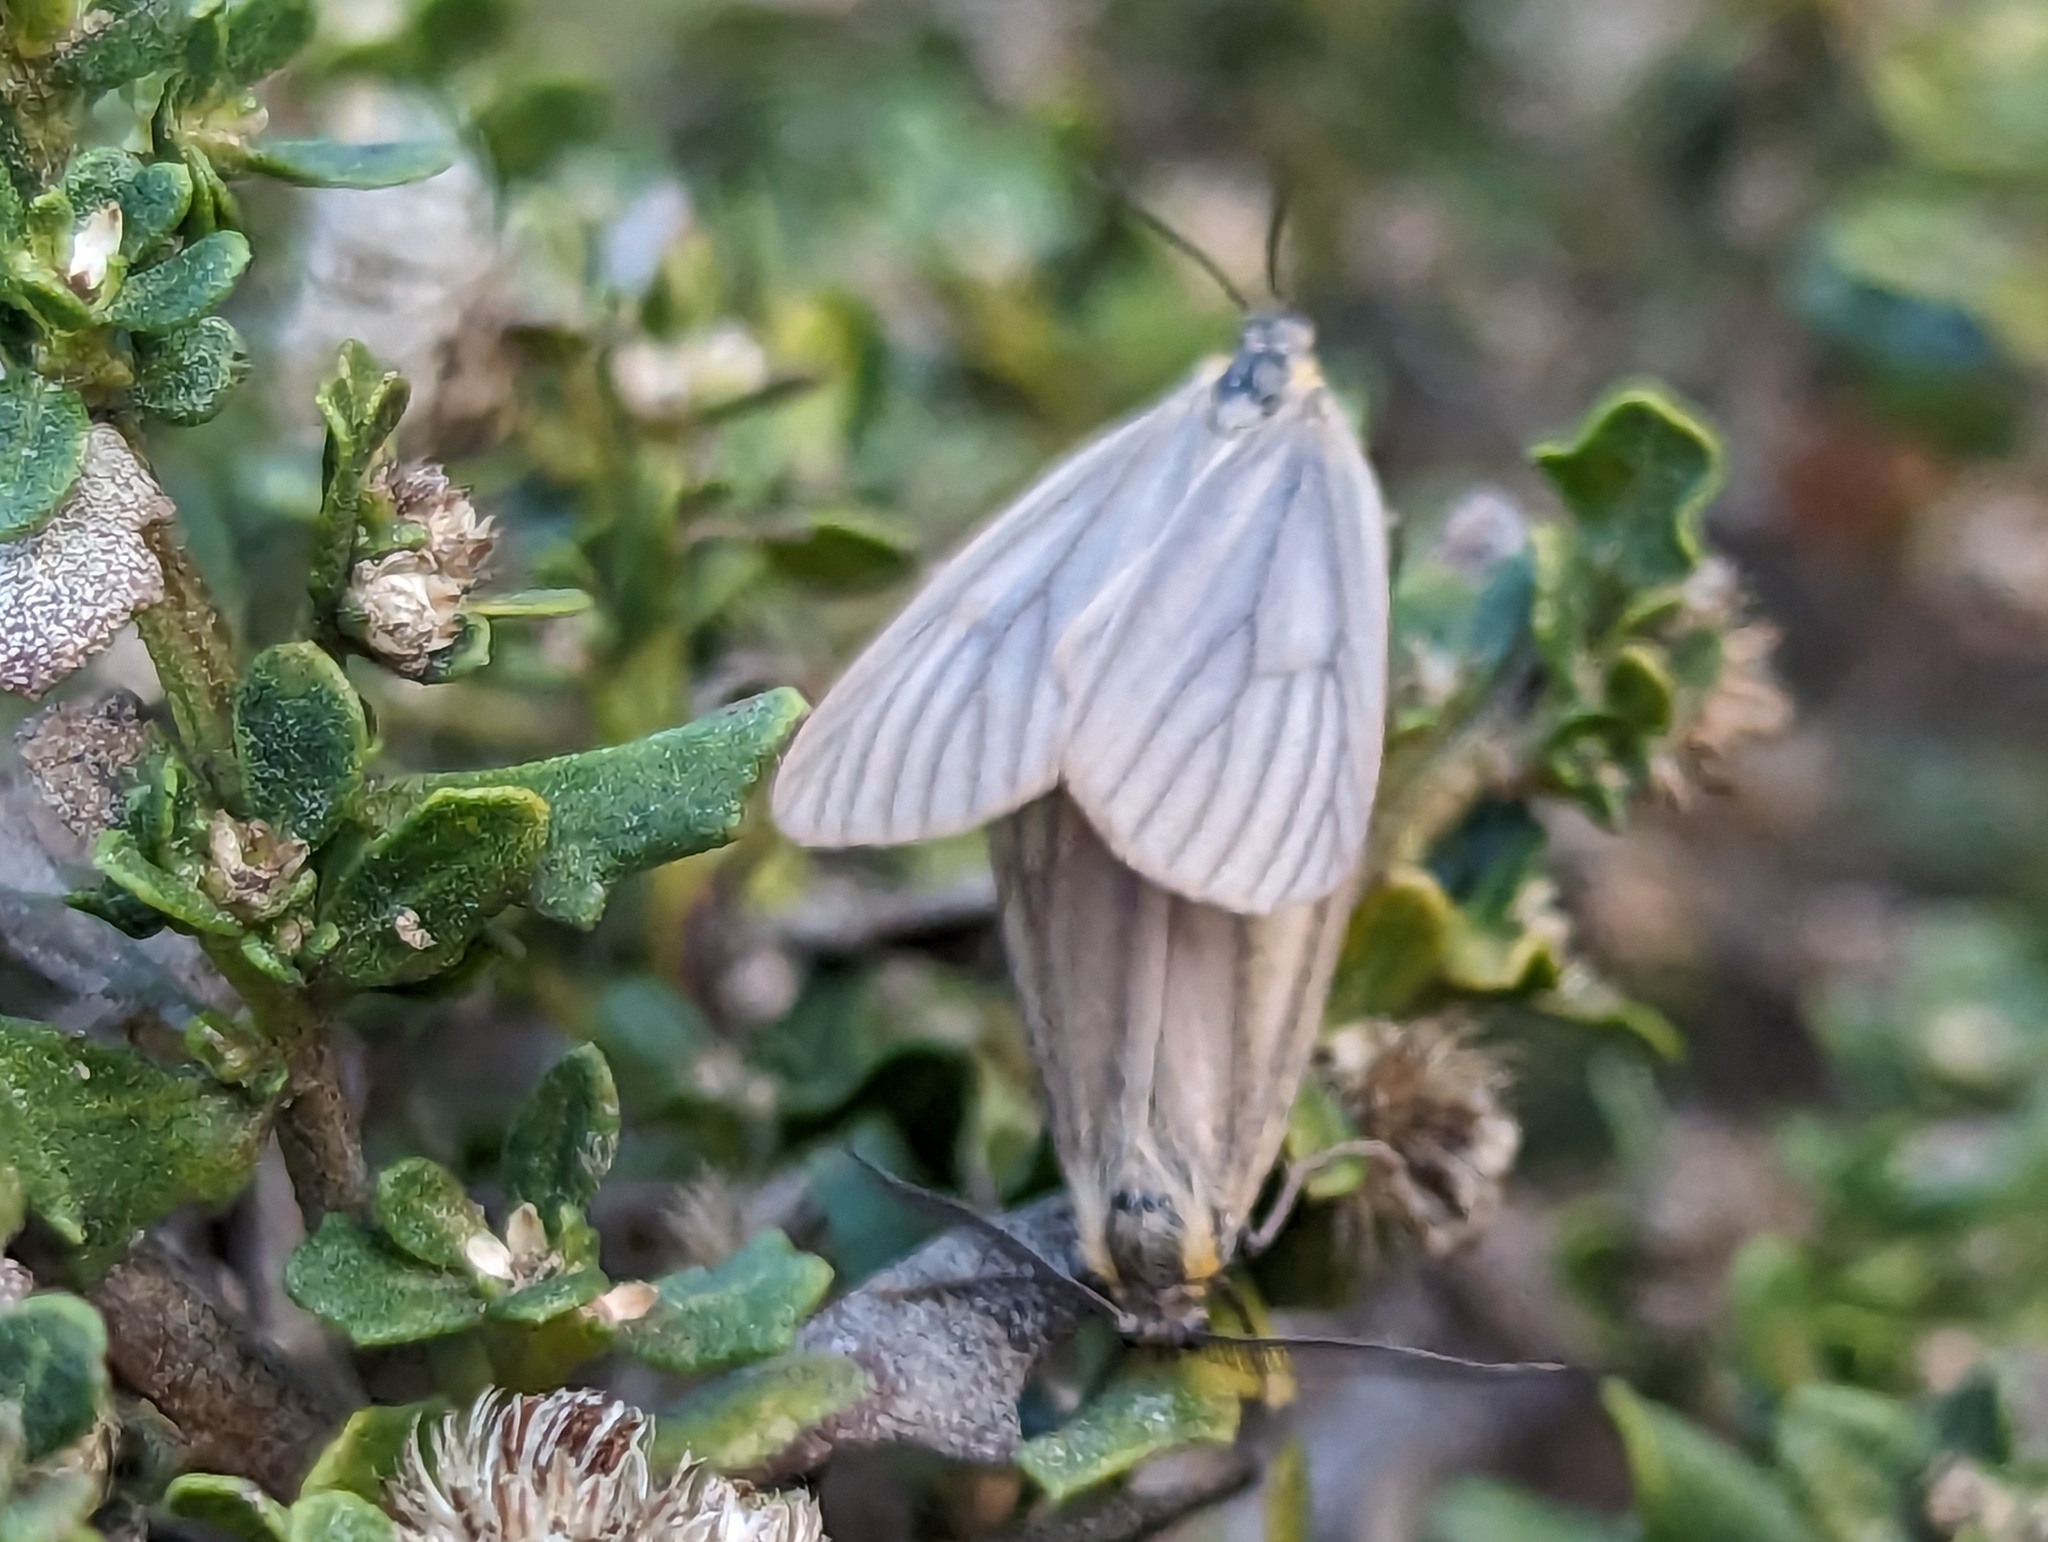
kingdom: Animalia
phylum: Arthropoda
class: Insecta
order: Lepidoptera
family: Notodontidae
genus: Phryganidia
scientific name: Phryganidia californica
